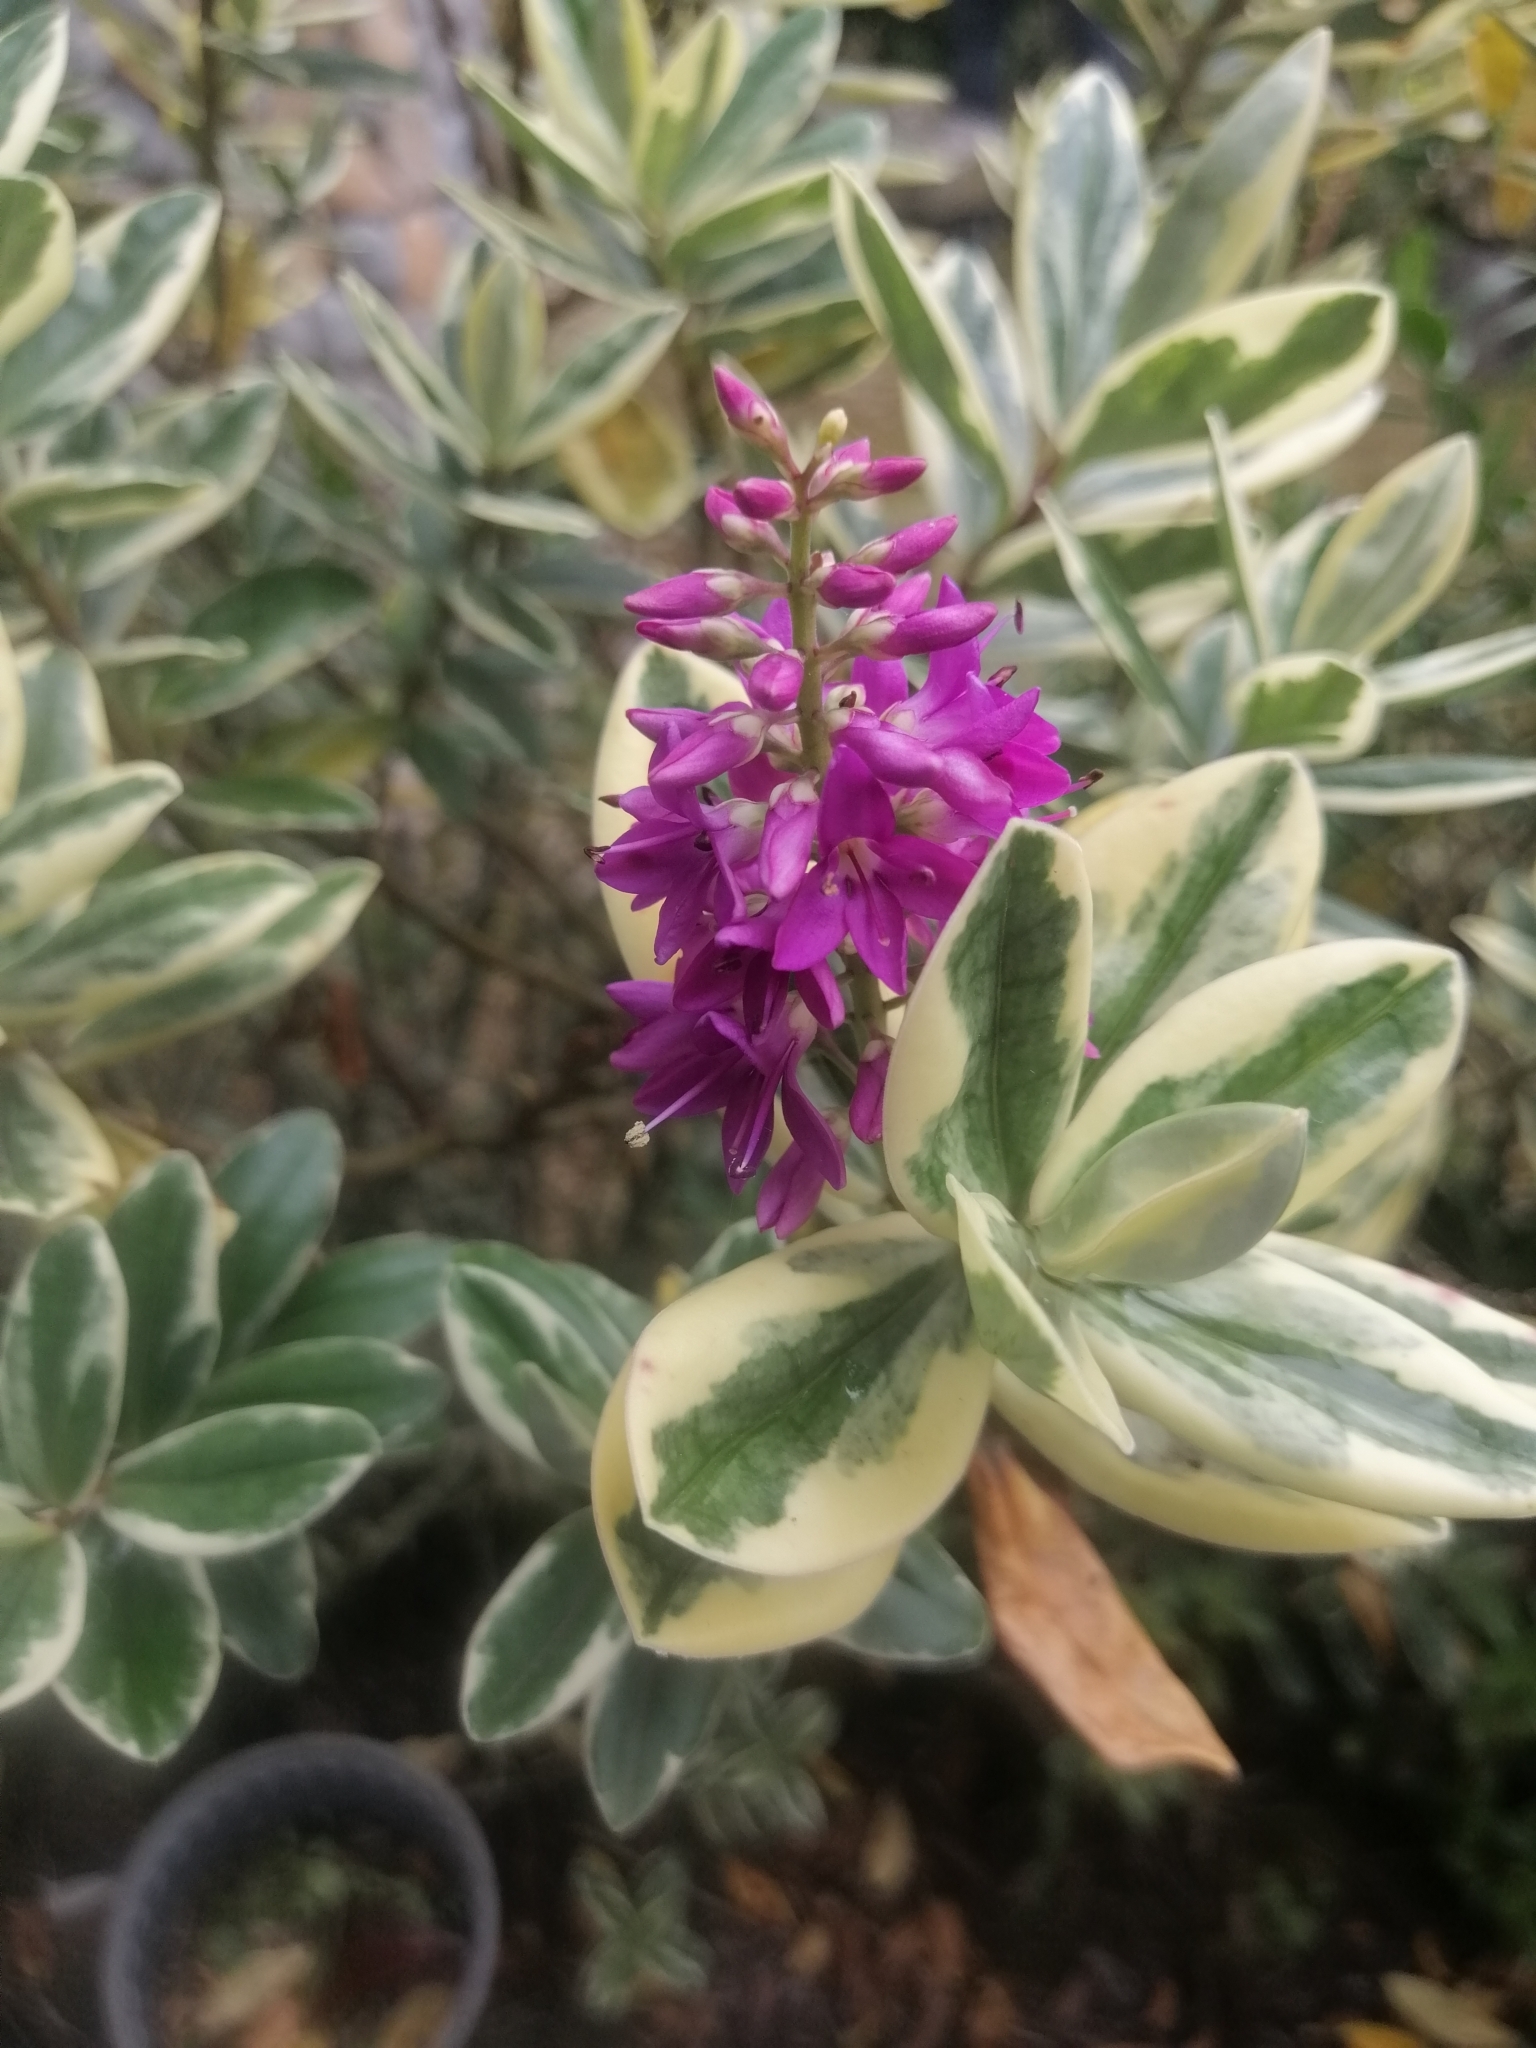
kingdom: Plantae
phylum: Tracheophyta
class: Magnoliopsida
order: Lamiales
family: Plantaginaceae
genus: Veronica
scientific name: Veronica speciosa
